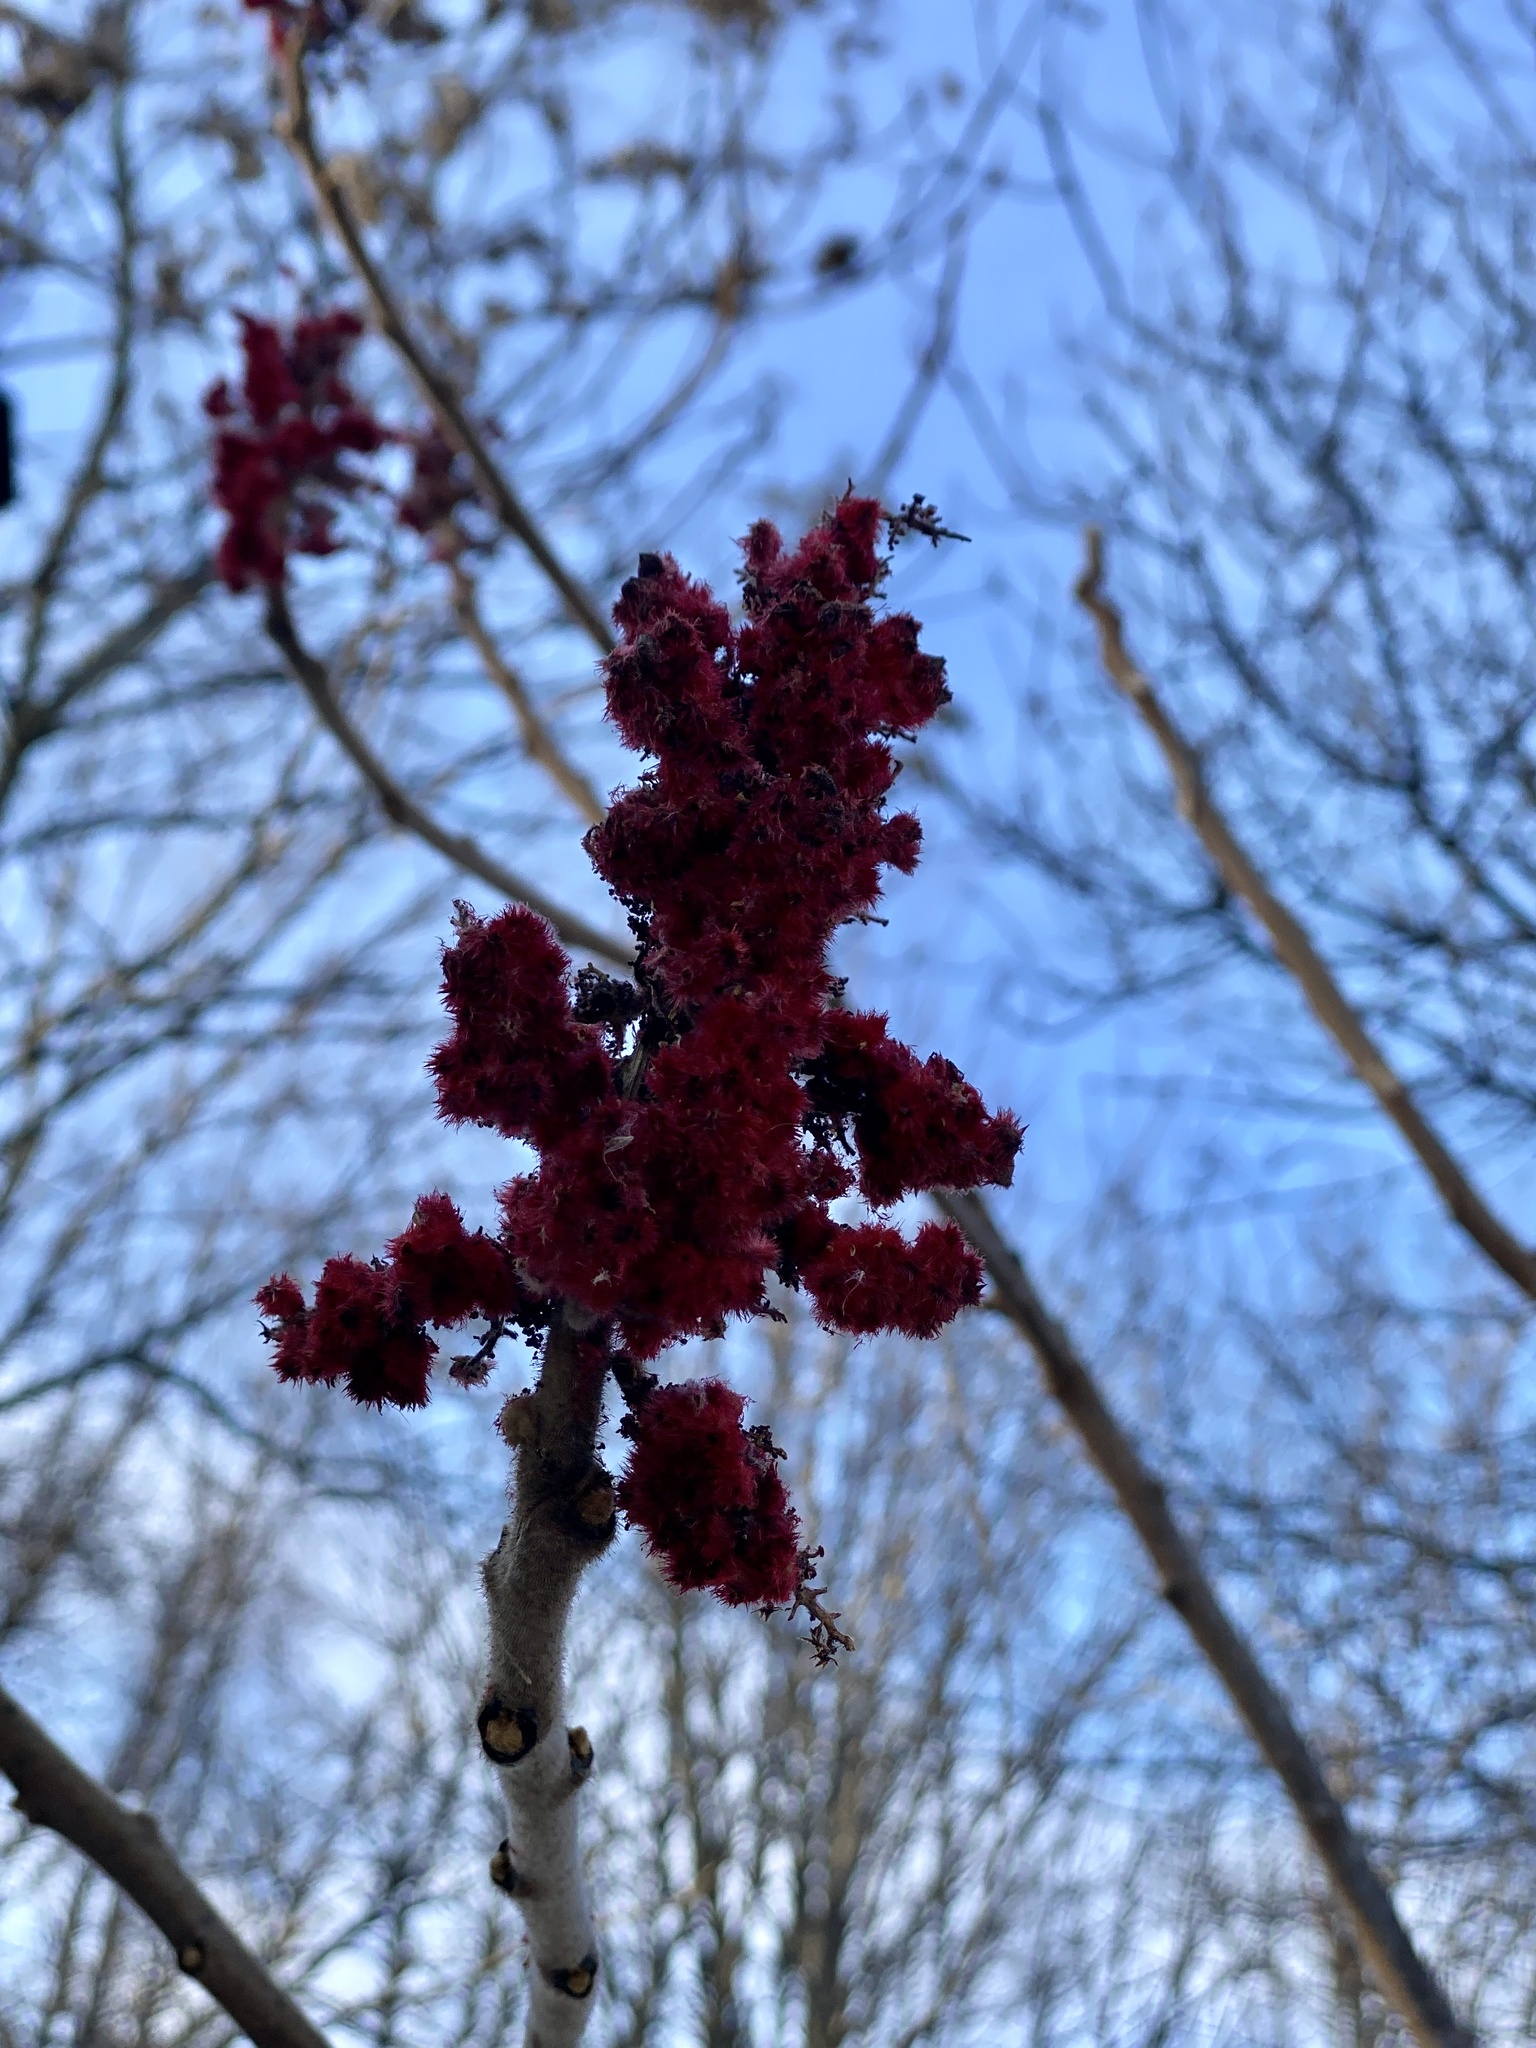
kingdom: Plantae
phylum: Tracheophyta
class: Magnoliopsida
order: Sapindales
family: Anacardiaceae
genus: Rhus
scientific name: Rhus typhina
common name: Staghorn sumac
